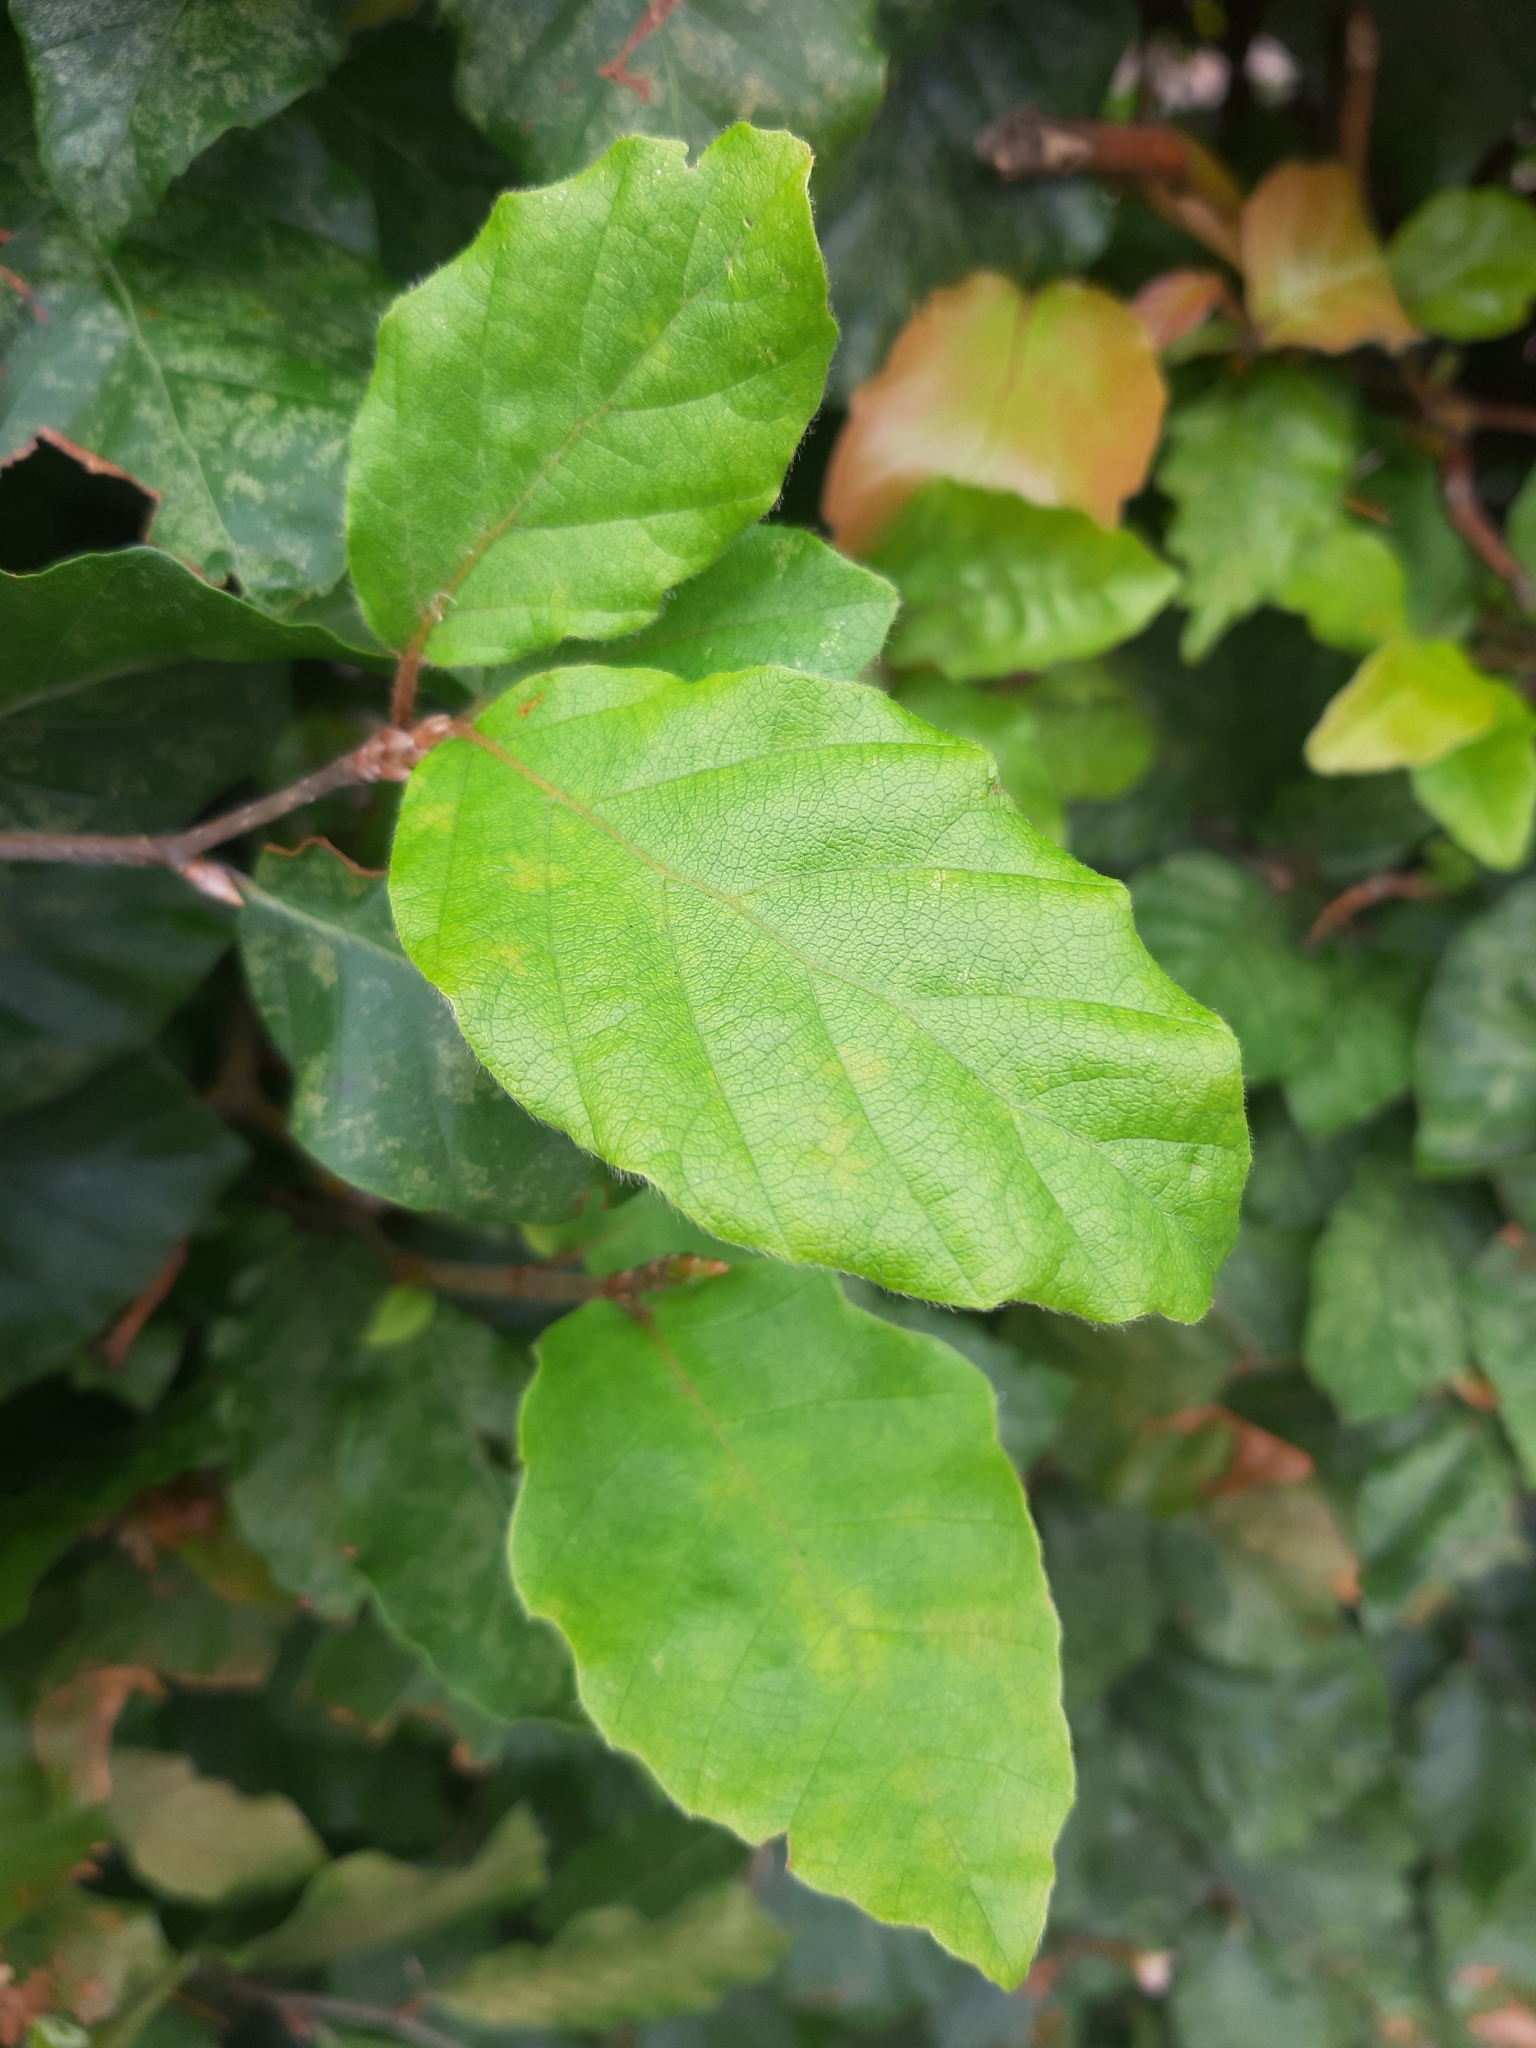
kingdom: Plantae
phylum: Tracheophyta
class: Magnoliopsida
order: Fagales
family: Fagaceae
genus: Fagus
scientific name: Fagus sylvatica
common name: Beech
